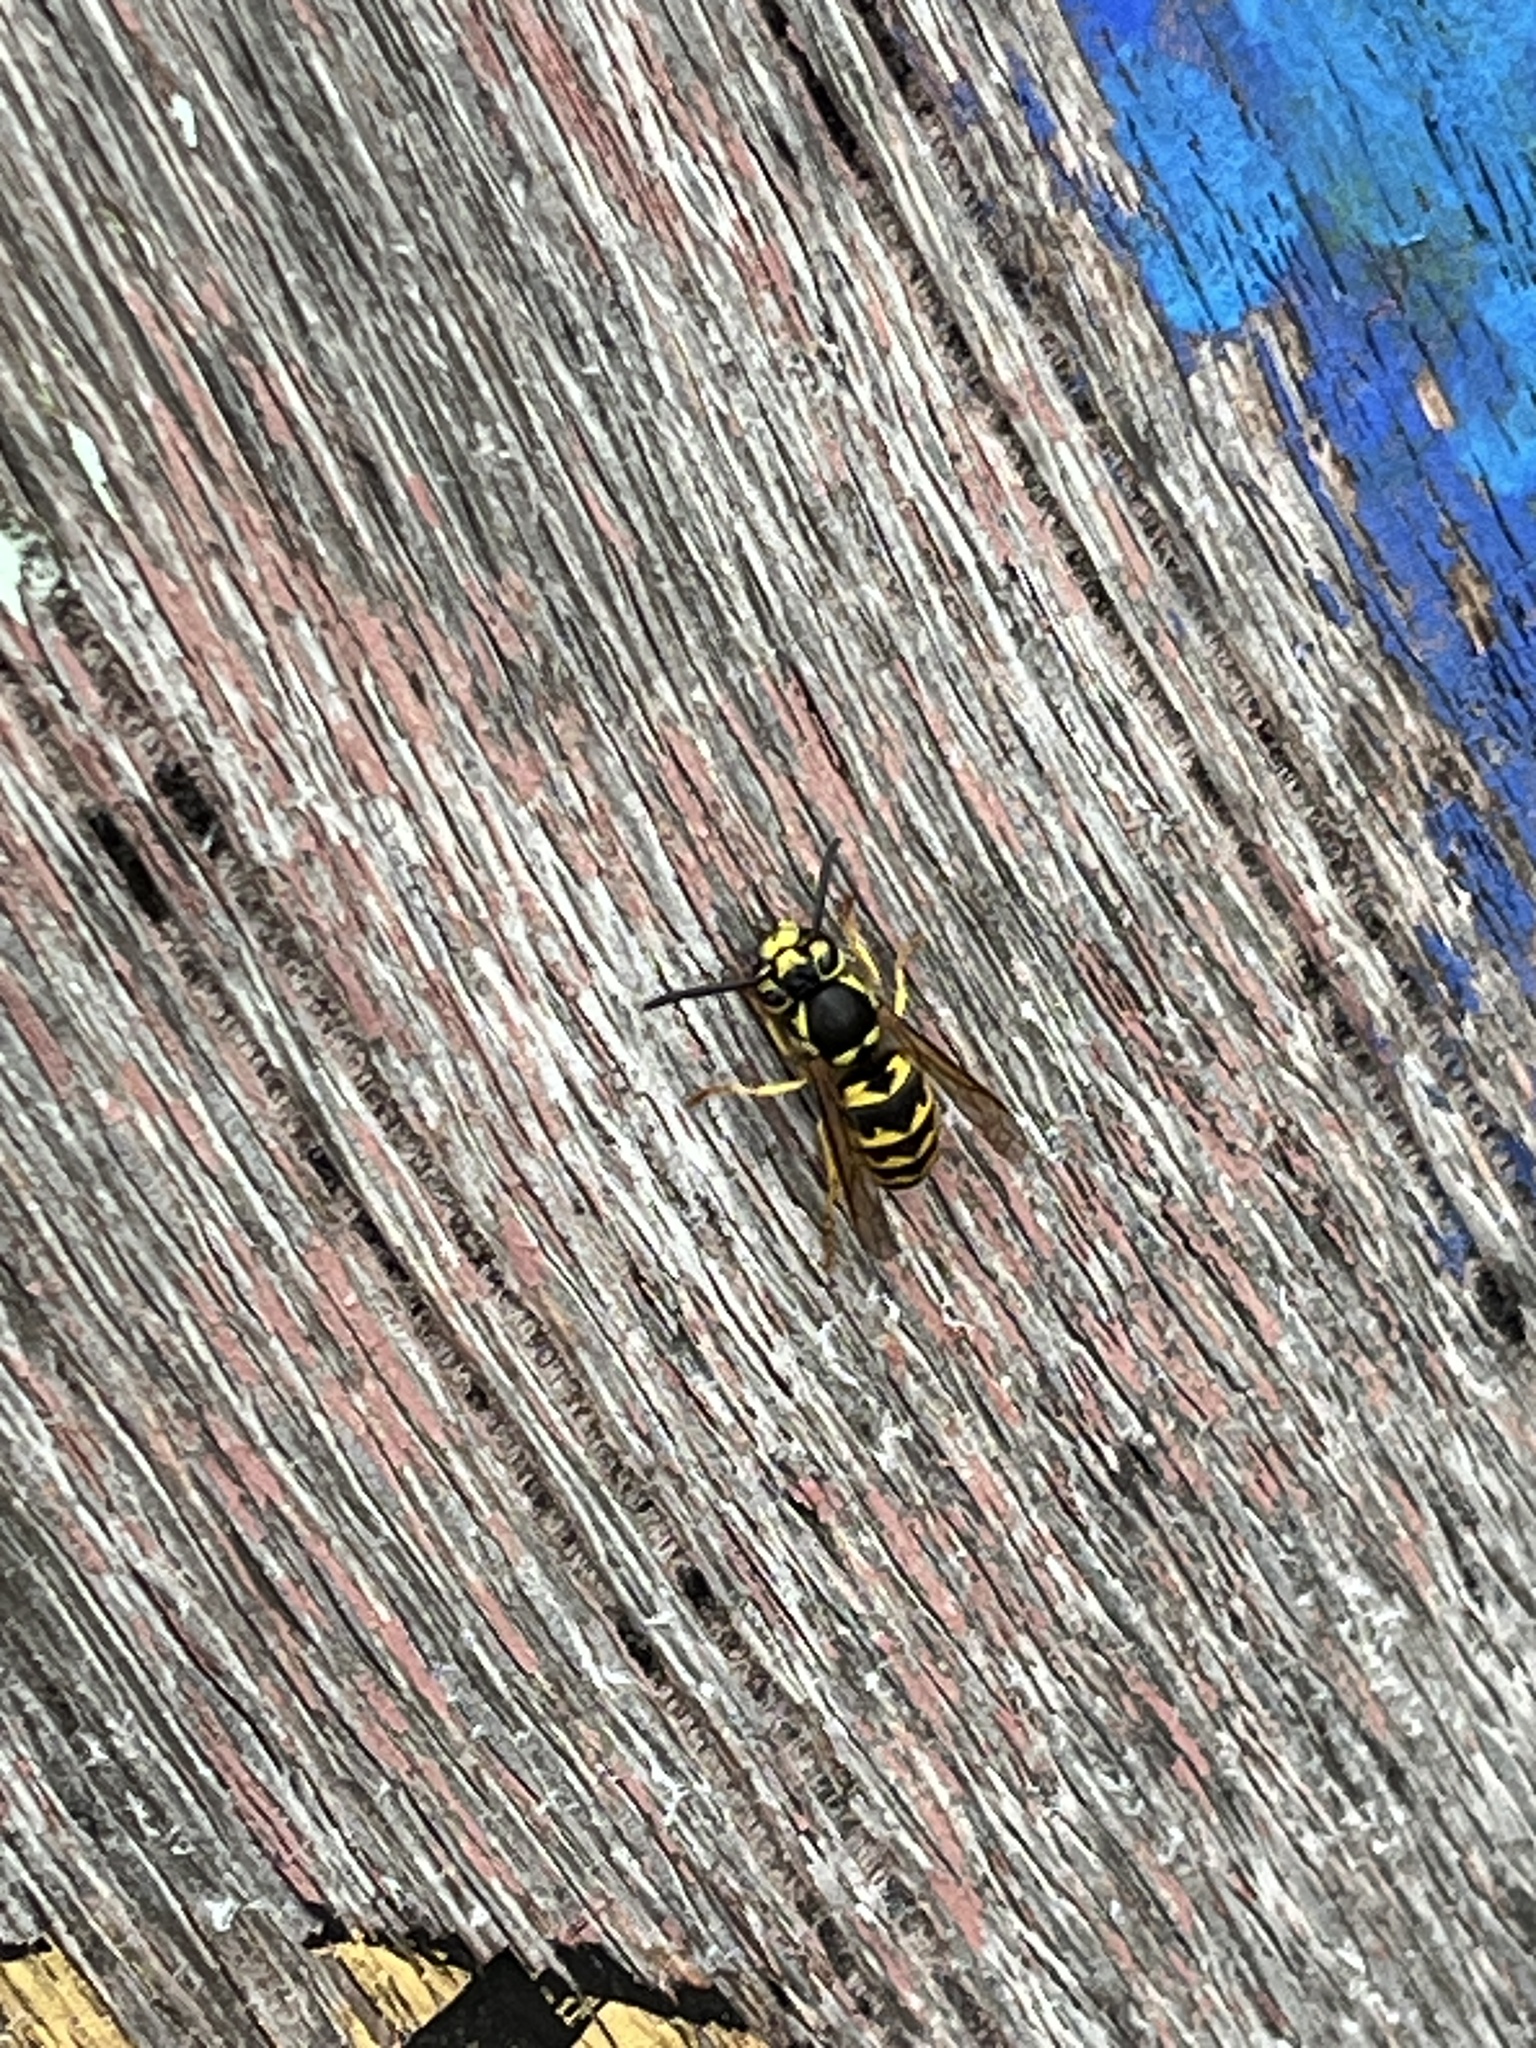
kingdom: Animalia
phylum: Arthropoda
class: Insecta
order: Hymenoptera
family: Vespidae
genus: Vespula
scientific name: Vespula pensylvanica
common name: Western yellowjacket
